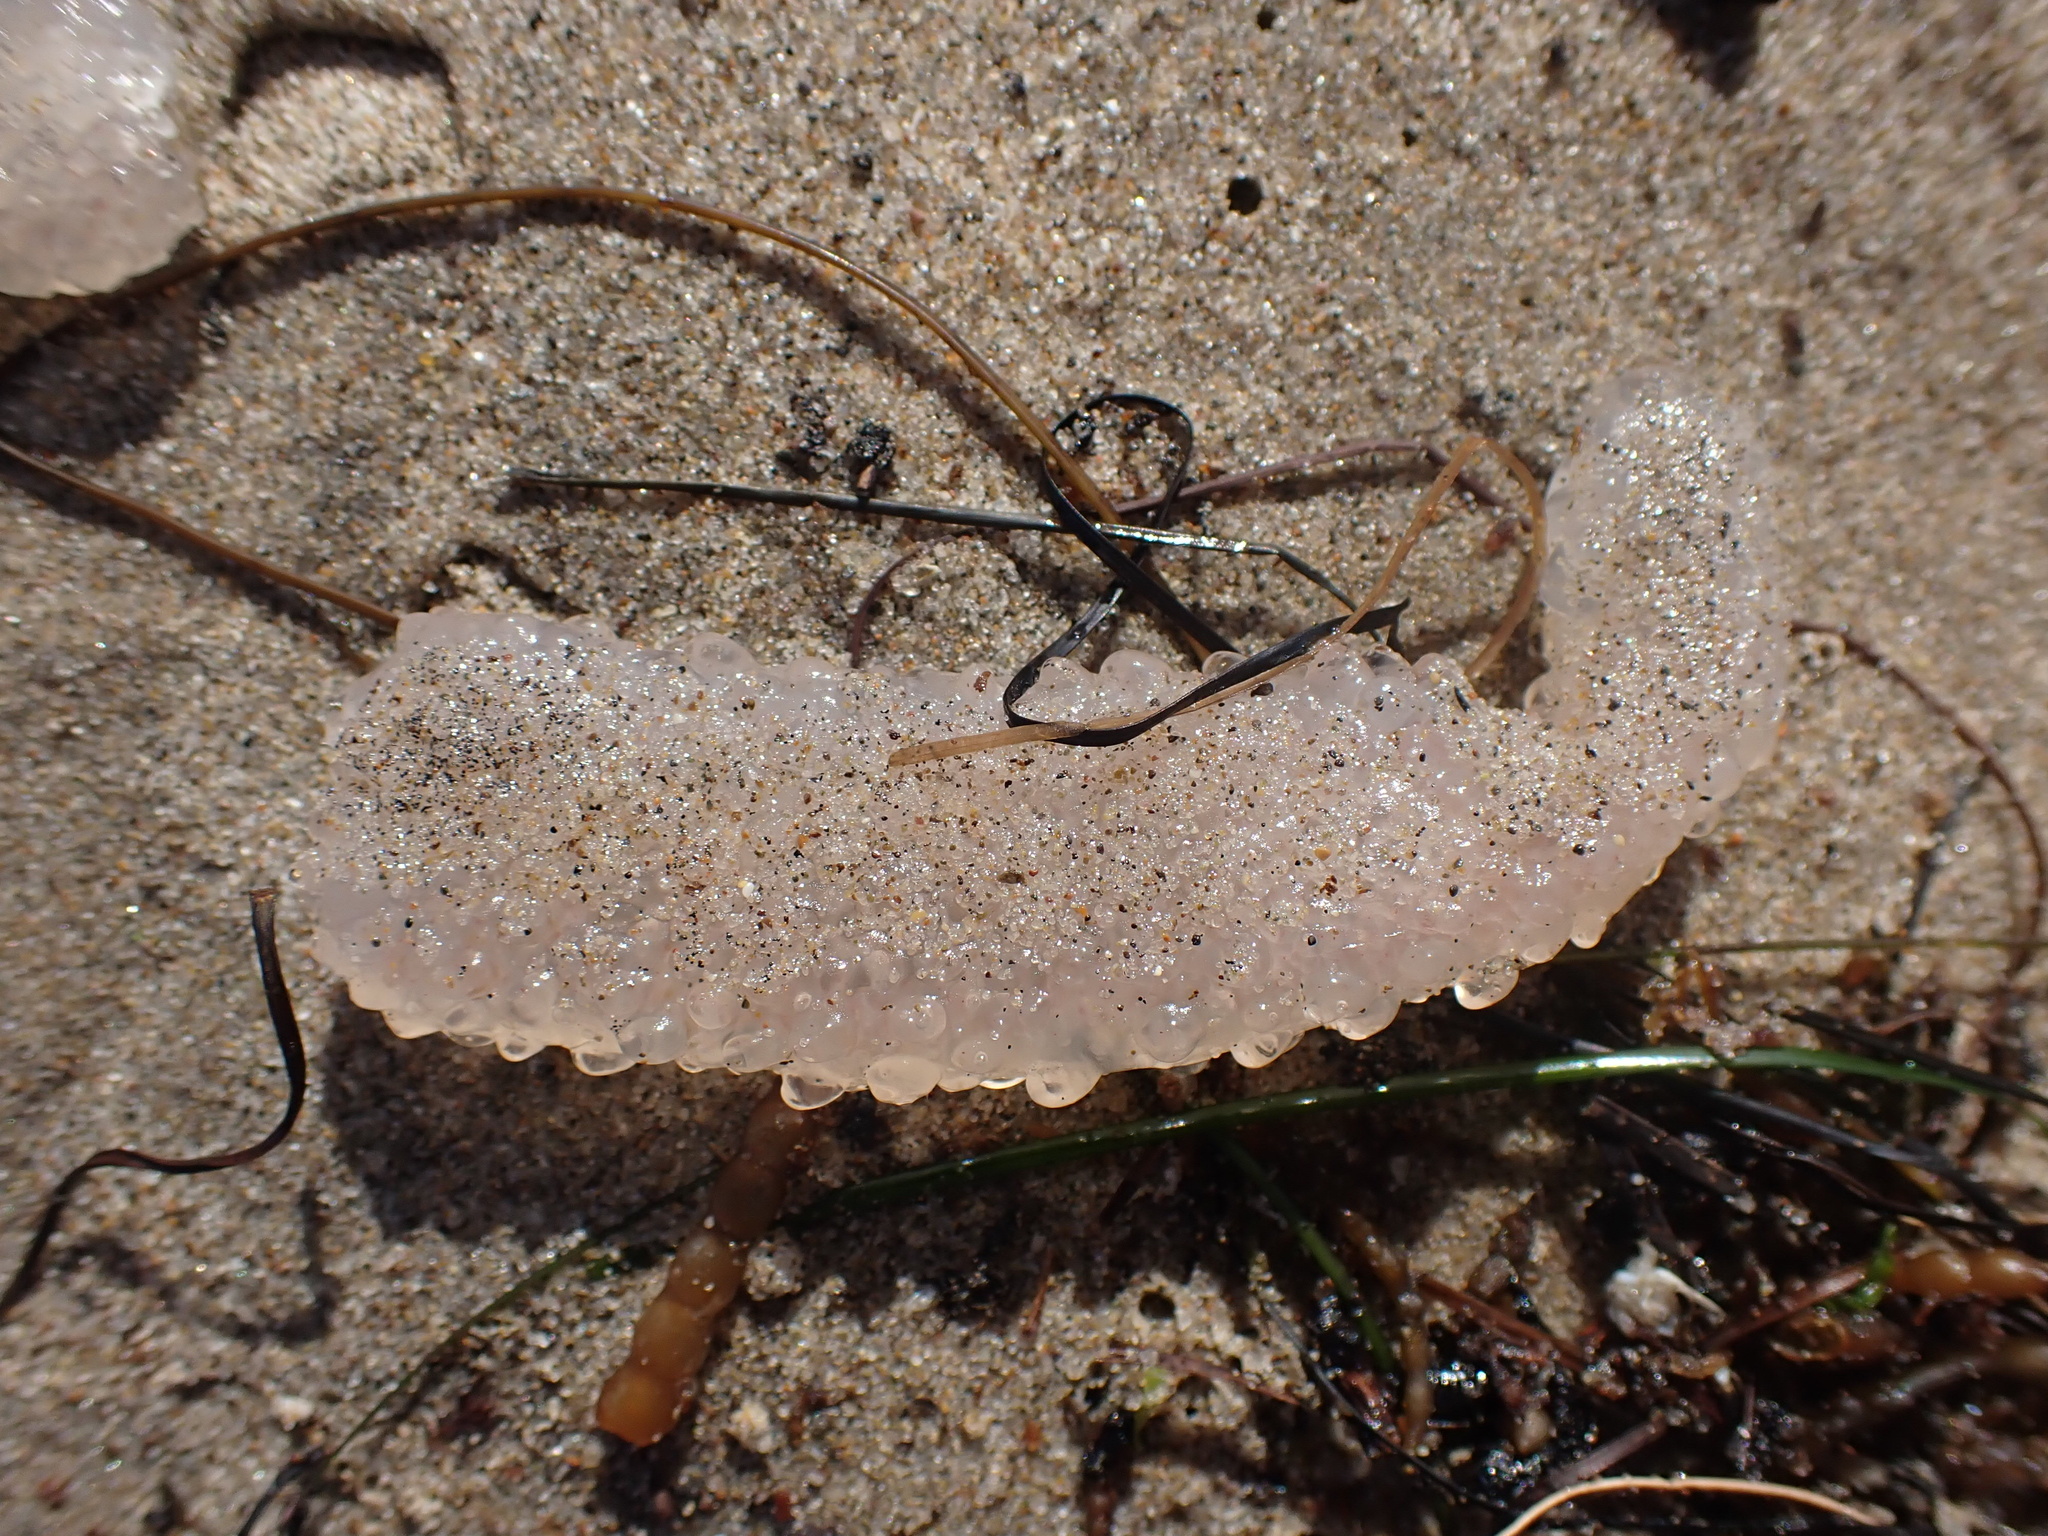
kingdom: Animalia
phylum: Chordata
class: Thaliacea
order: Pyrosomatida
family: Pyrosomatidae
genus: Pyrosoma
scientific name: Pyrosoma atlanticum
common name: Atlantic pyrosomes
